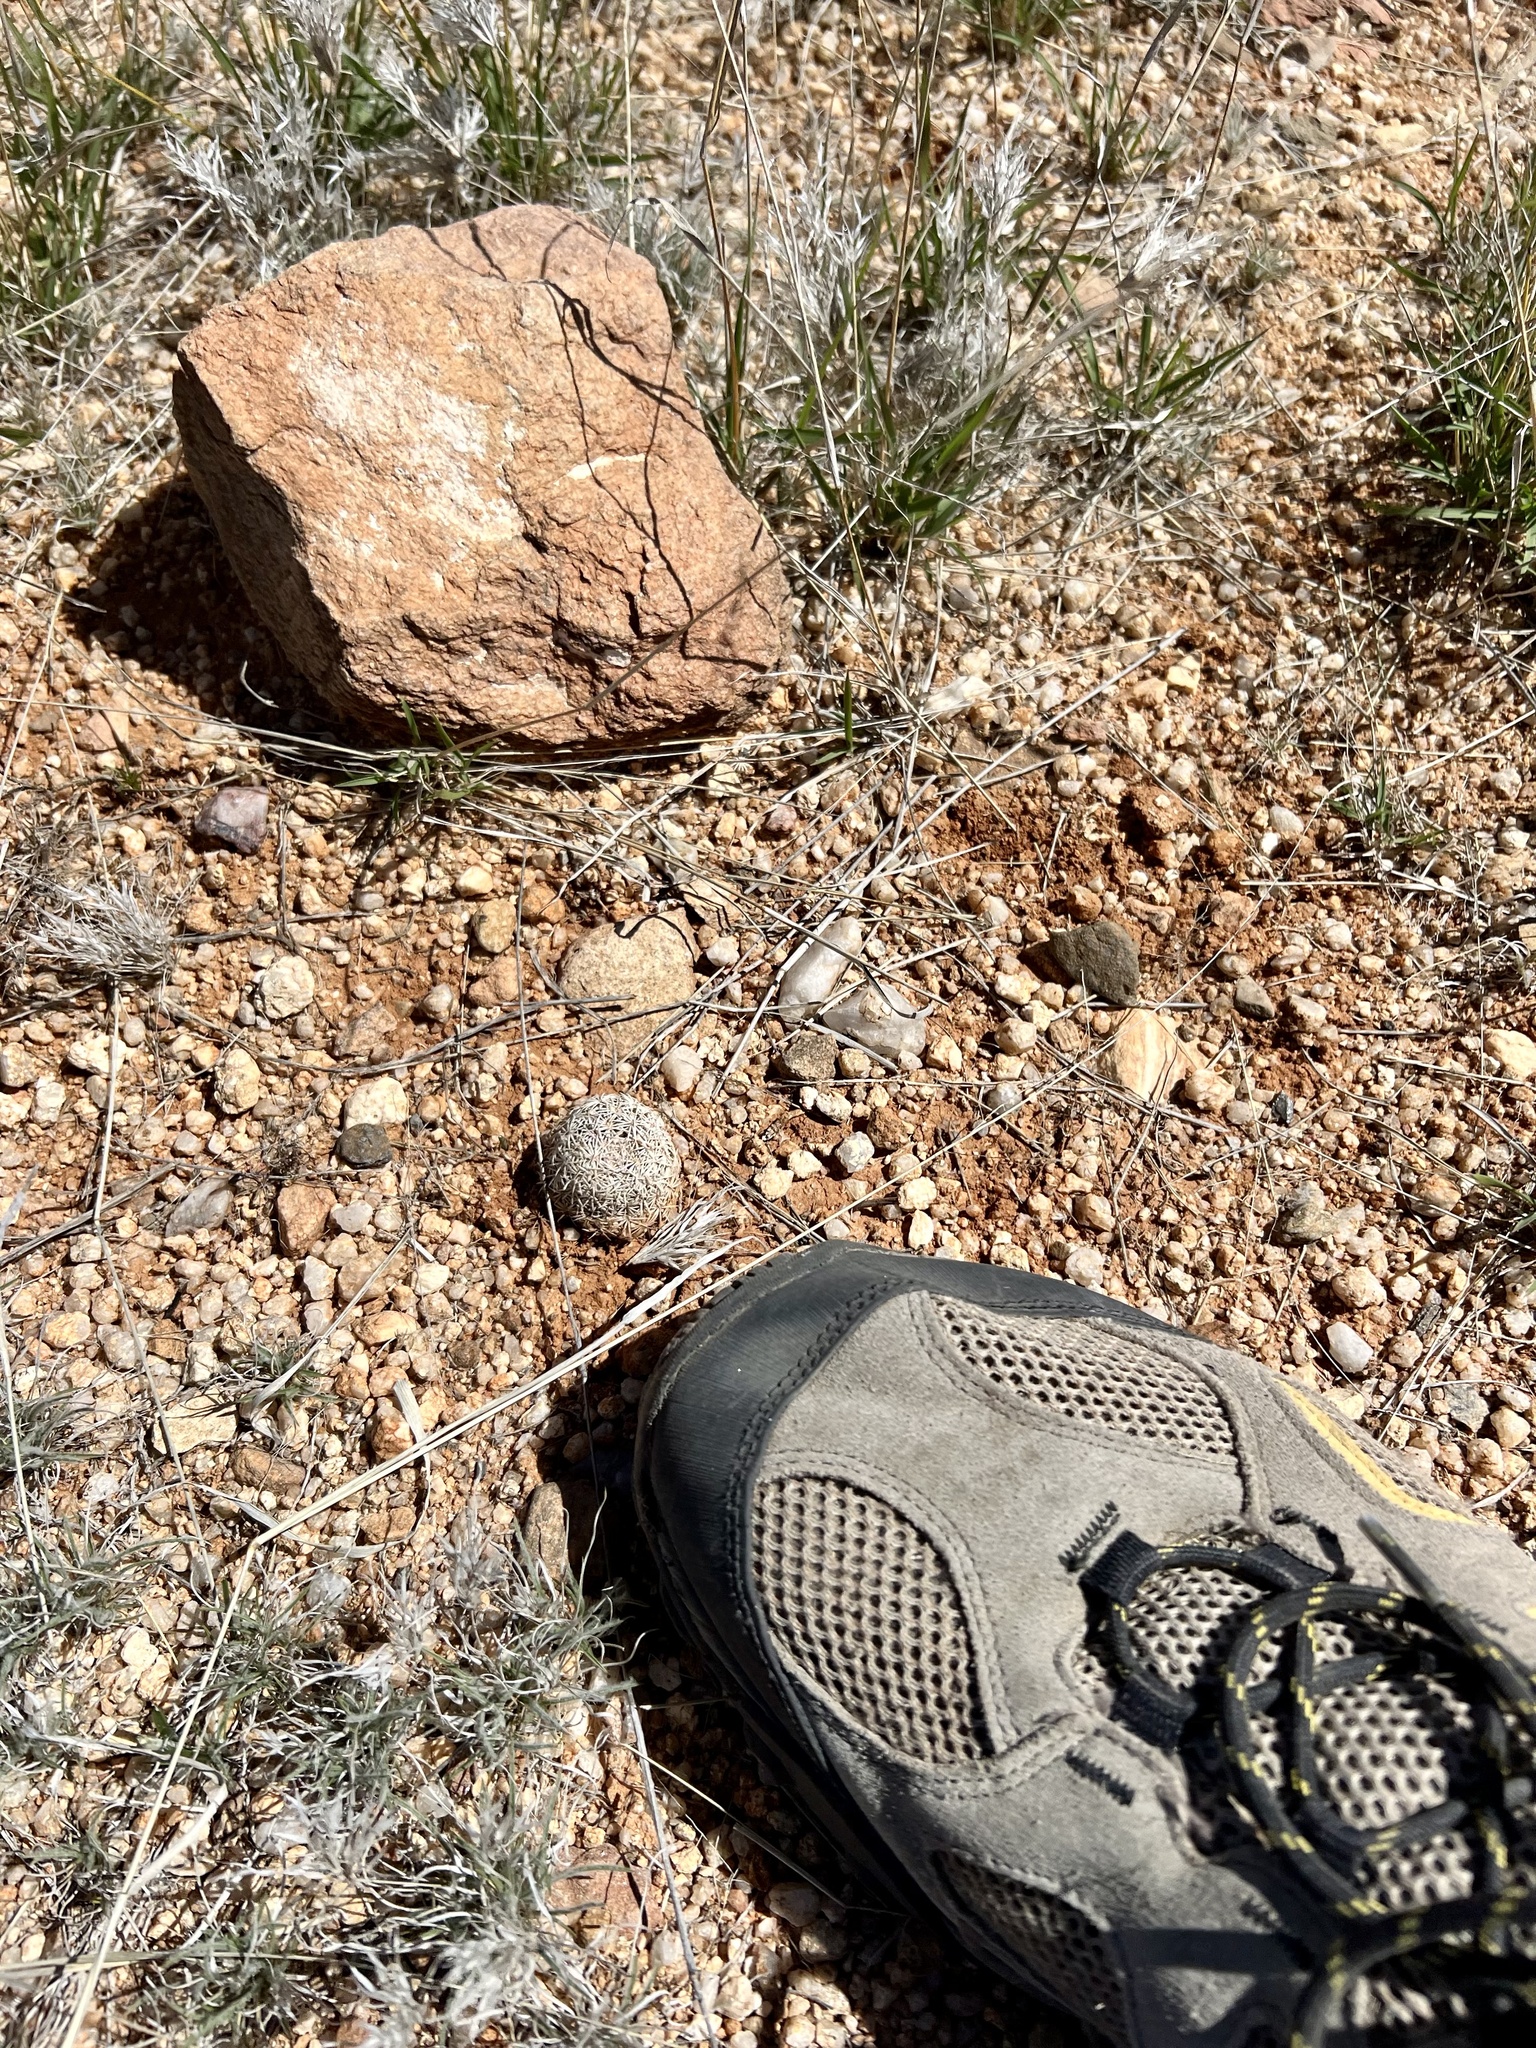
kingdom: Plantae
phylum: Tracheophyta
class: Magnoliopsida
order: Caryophyllales
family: Cactaceae
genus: Sclerocactus
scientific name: Sclerocactus johnsonii
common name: Eight-spine fishhook cactus
